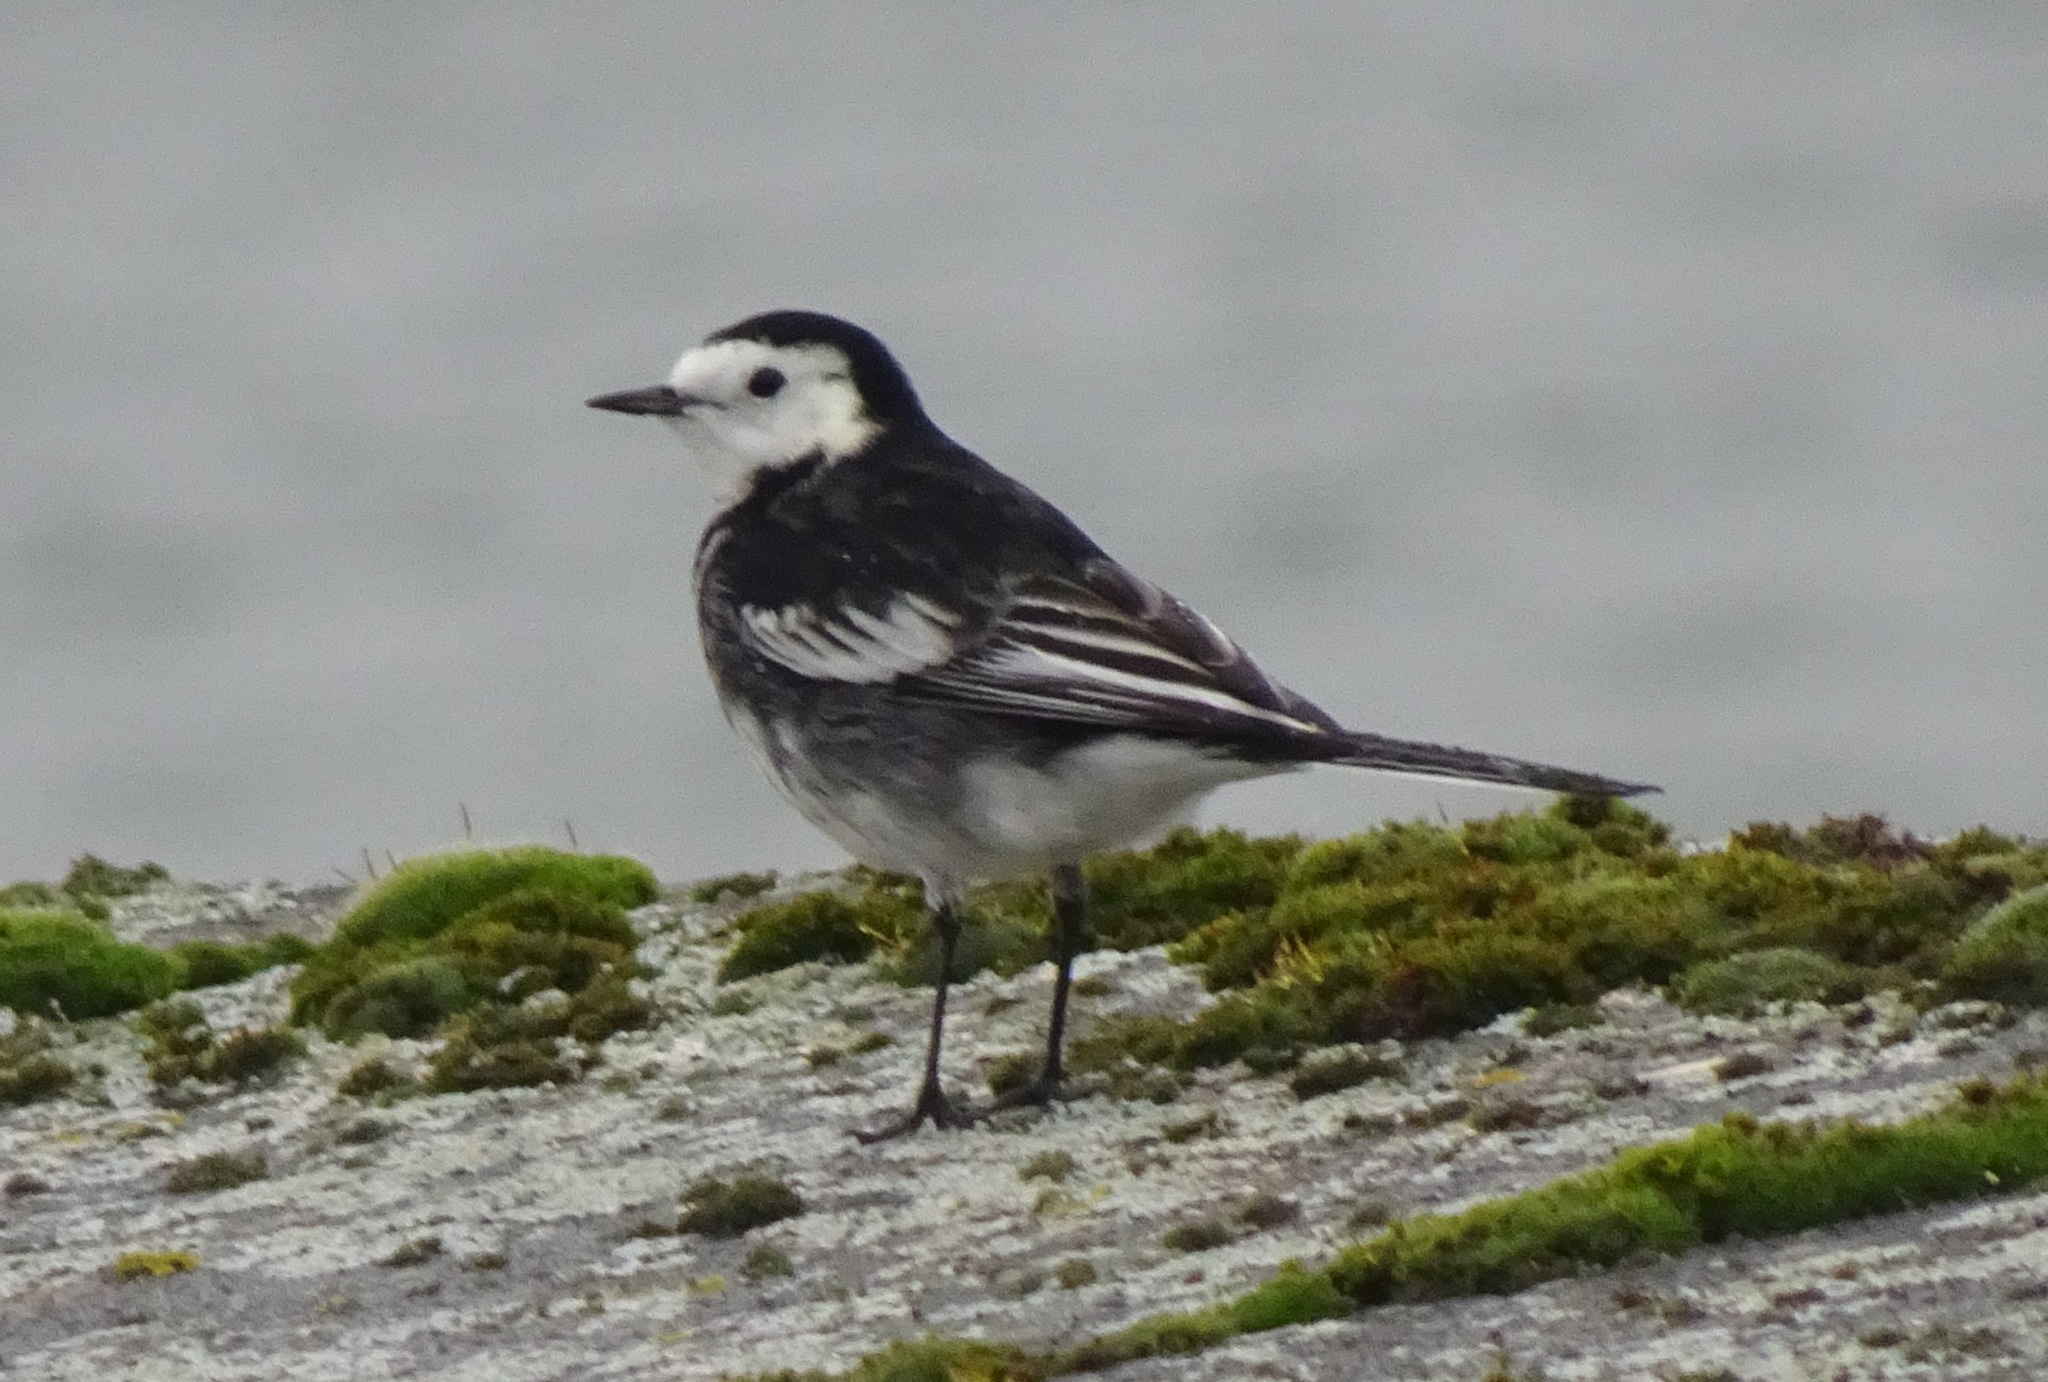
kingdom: Animalia
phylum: Chordata
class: Aves
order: Passeriformes
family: Motacillidae
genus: Motacilla
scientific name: Motacilla alba
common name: White wagtail
